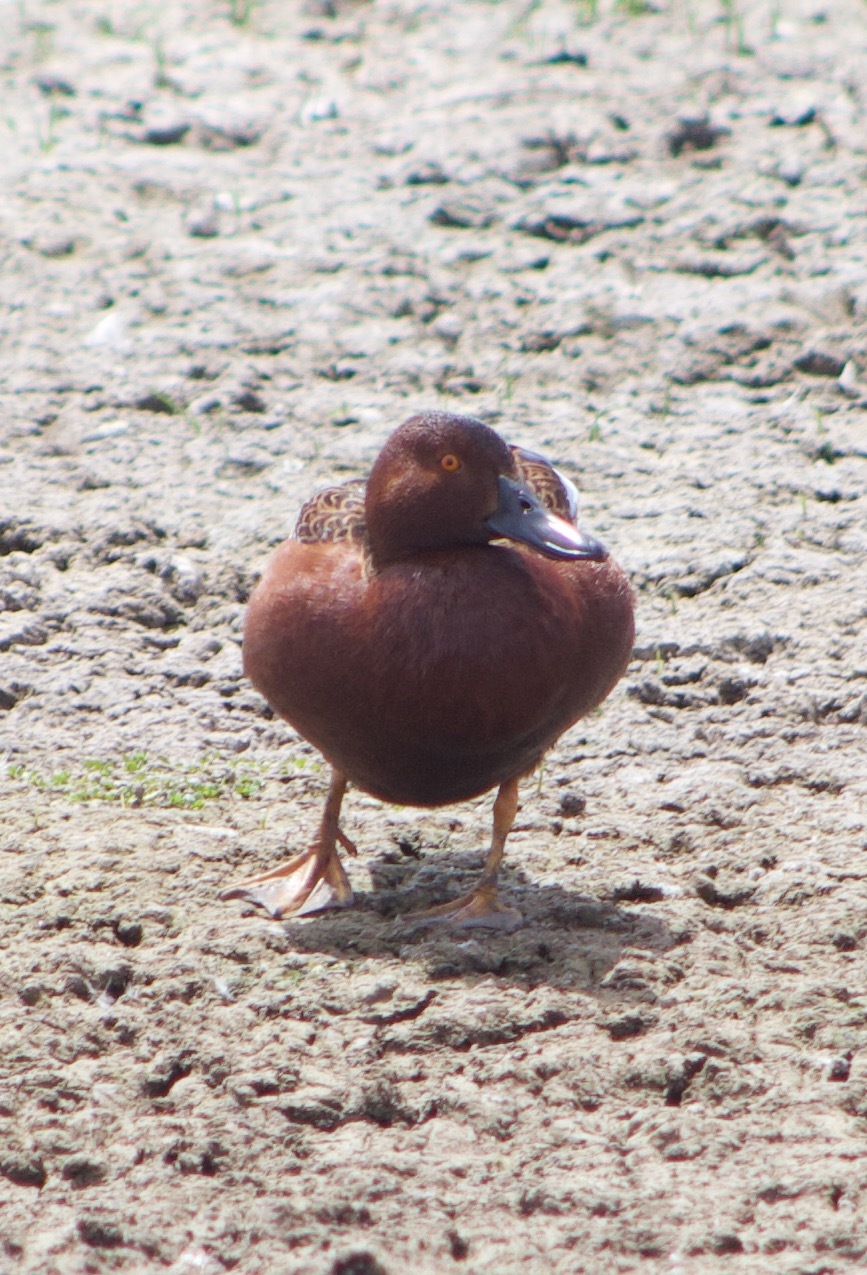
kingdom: Animalia
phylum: Chordata
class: Aves
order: Anseriformes
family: Anatidae
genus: Spatula
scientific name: Spatula cyanoptera
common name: Cinnamon teal
